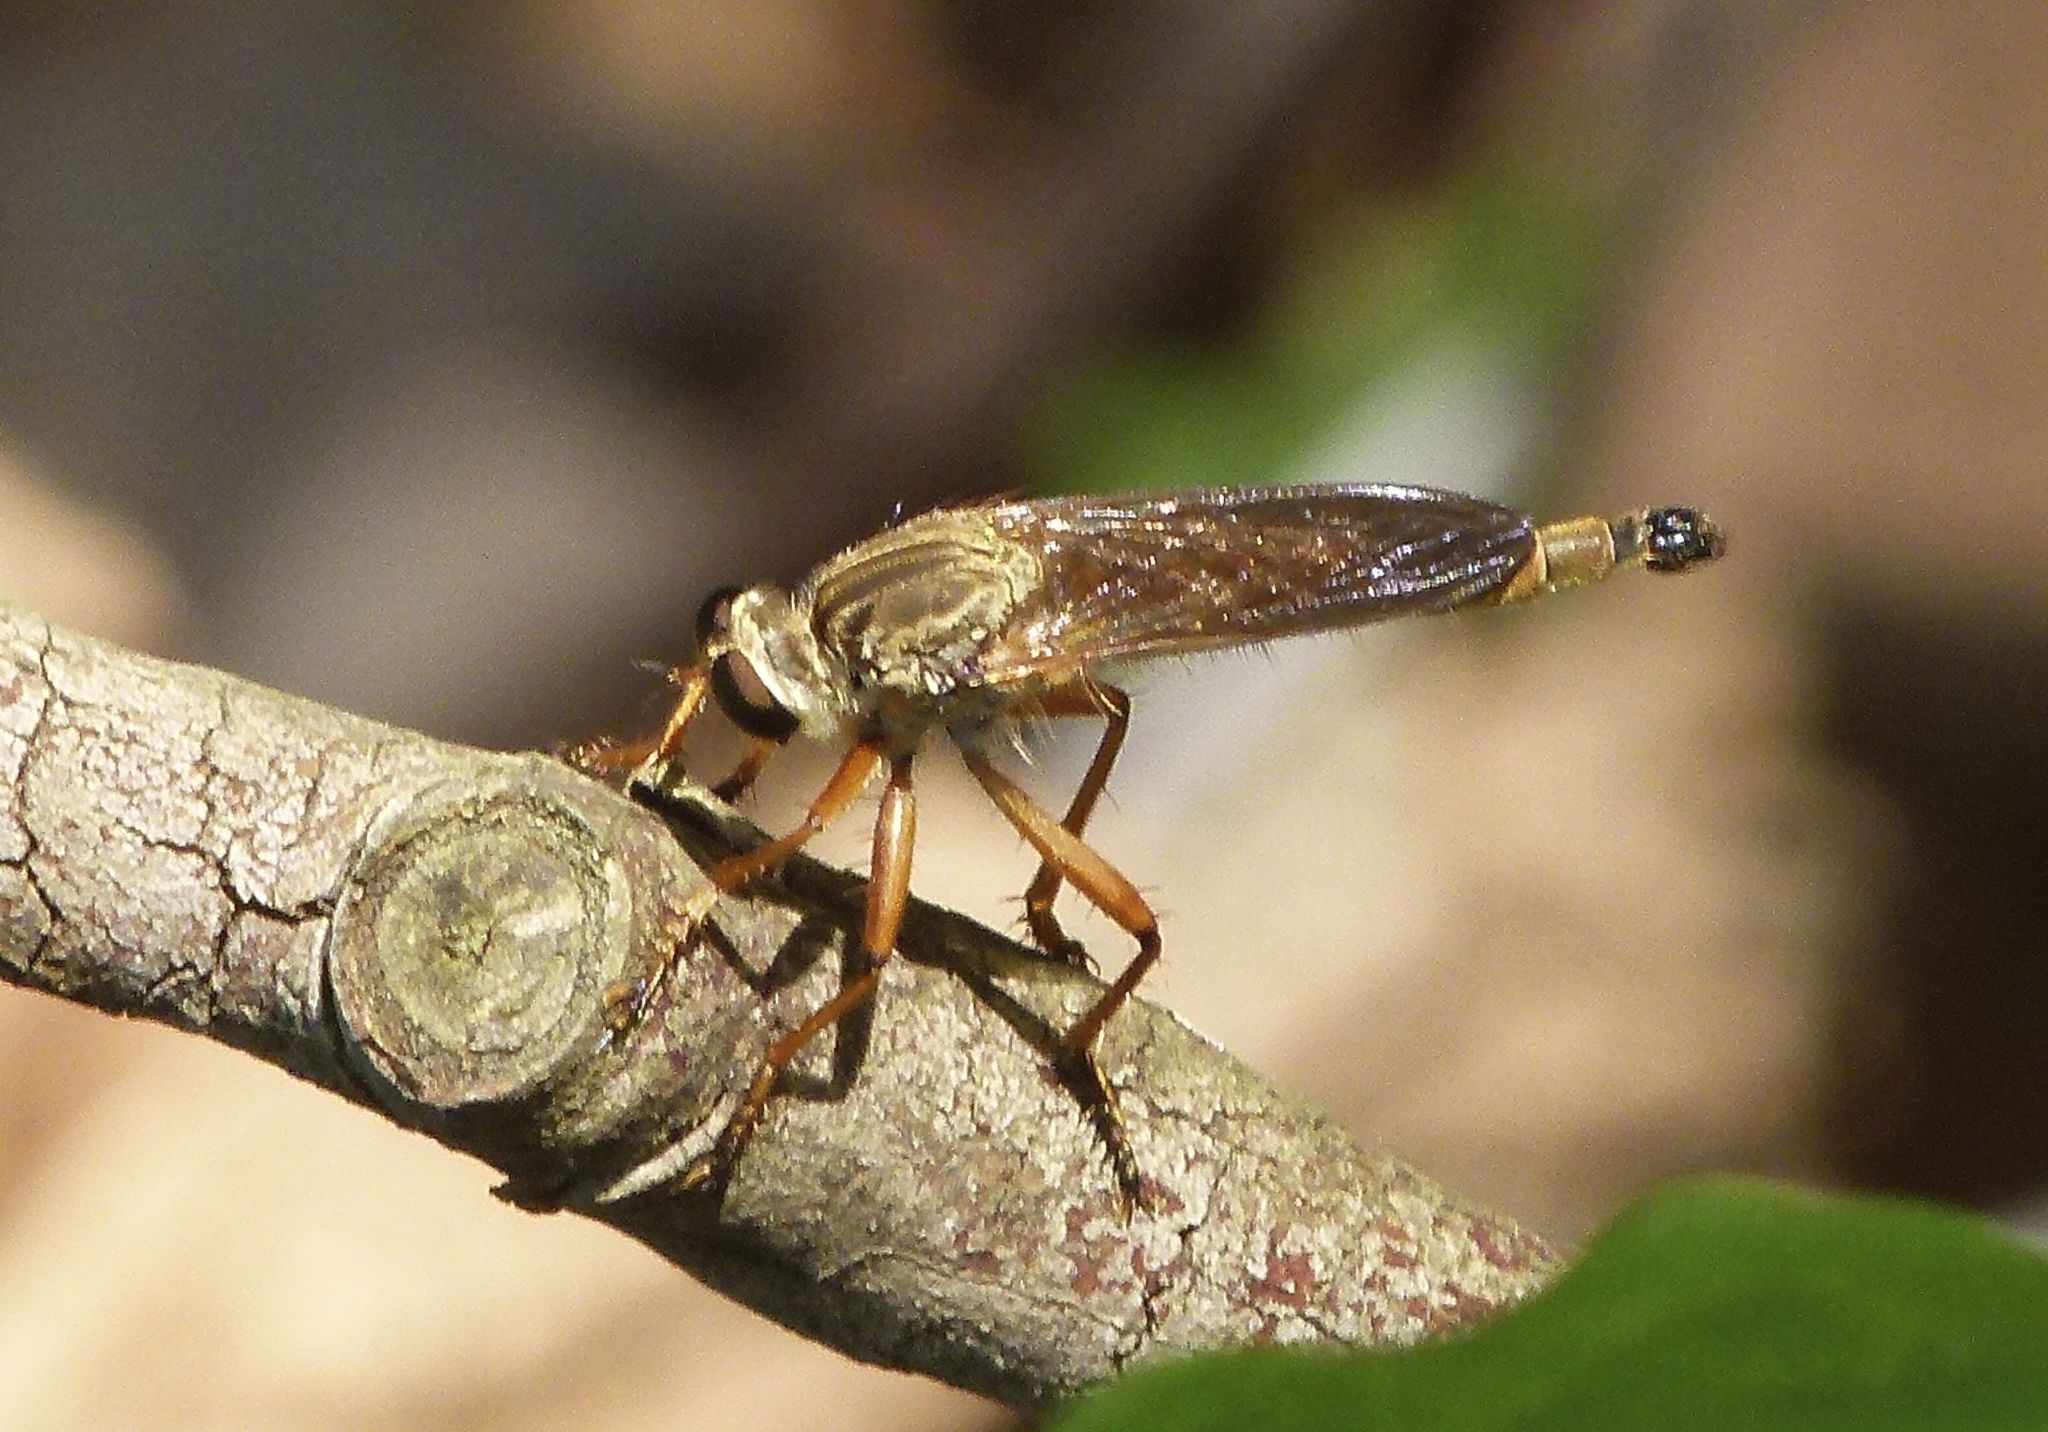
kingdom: Animalia
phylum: Arthropoda
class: Insecta
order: Diptera
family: Asilidae
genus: Zosteria
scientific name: Zosteria fulvipubescens
